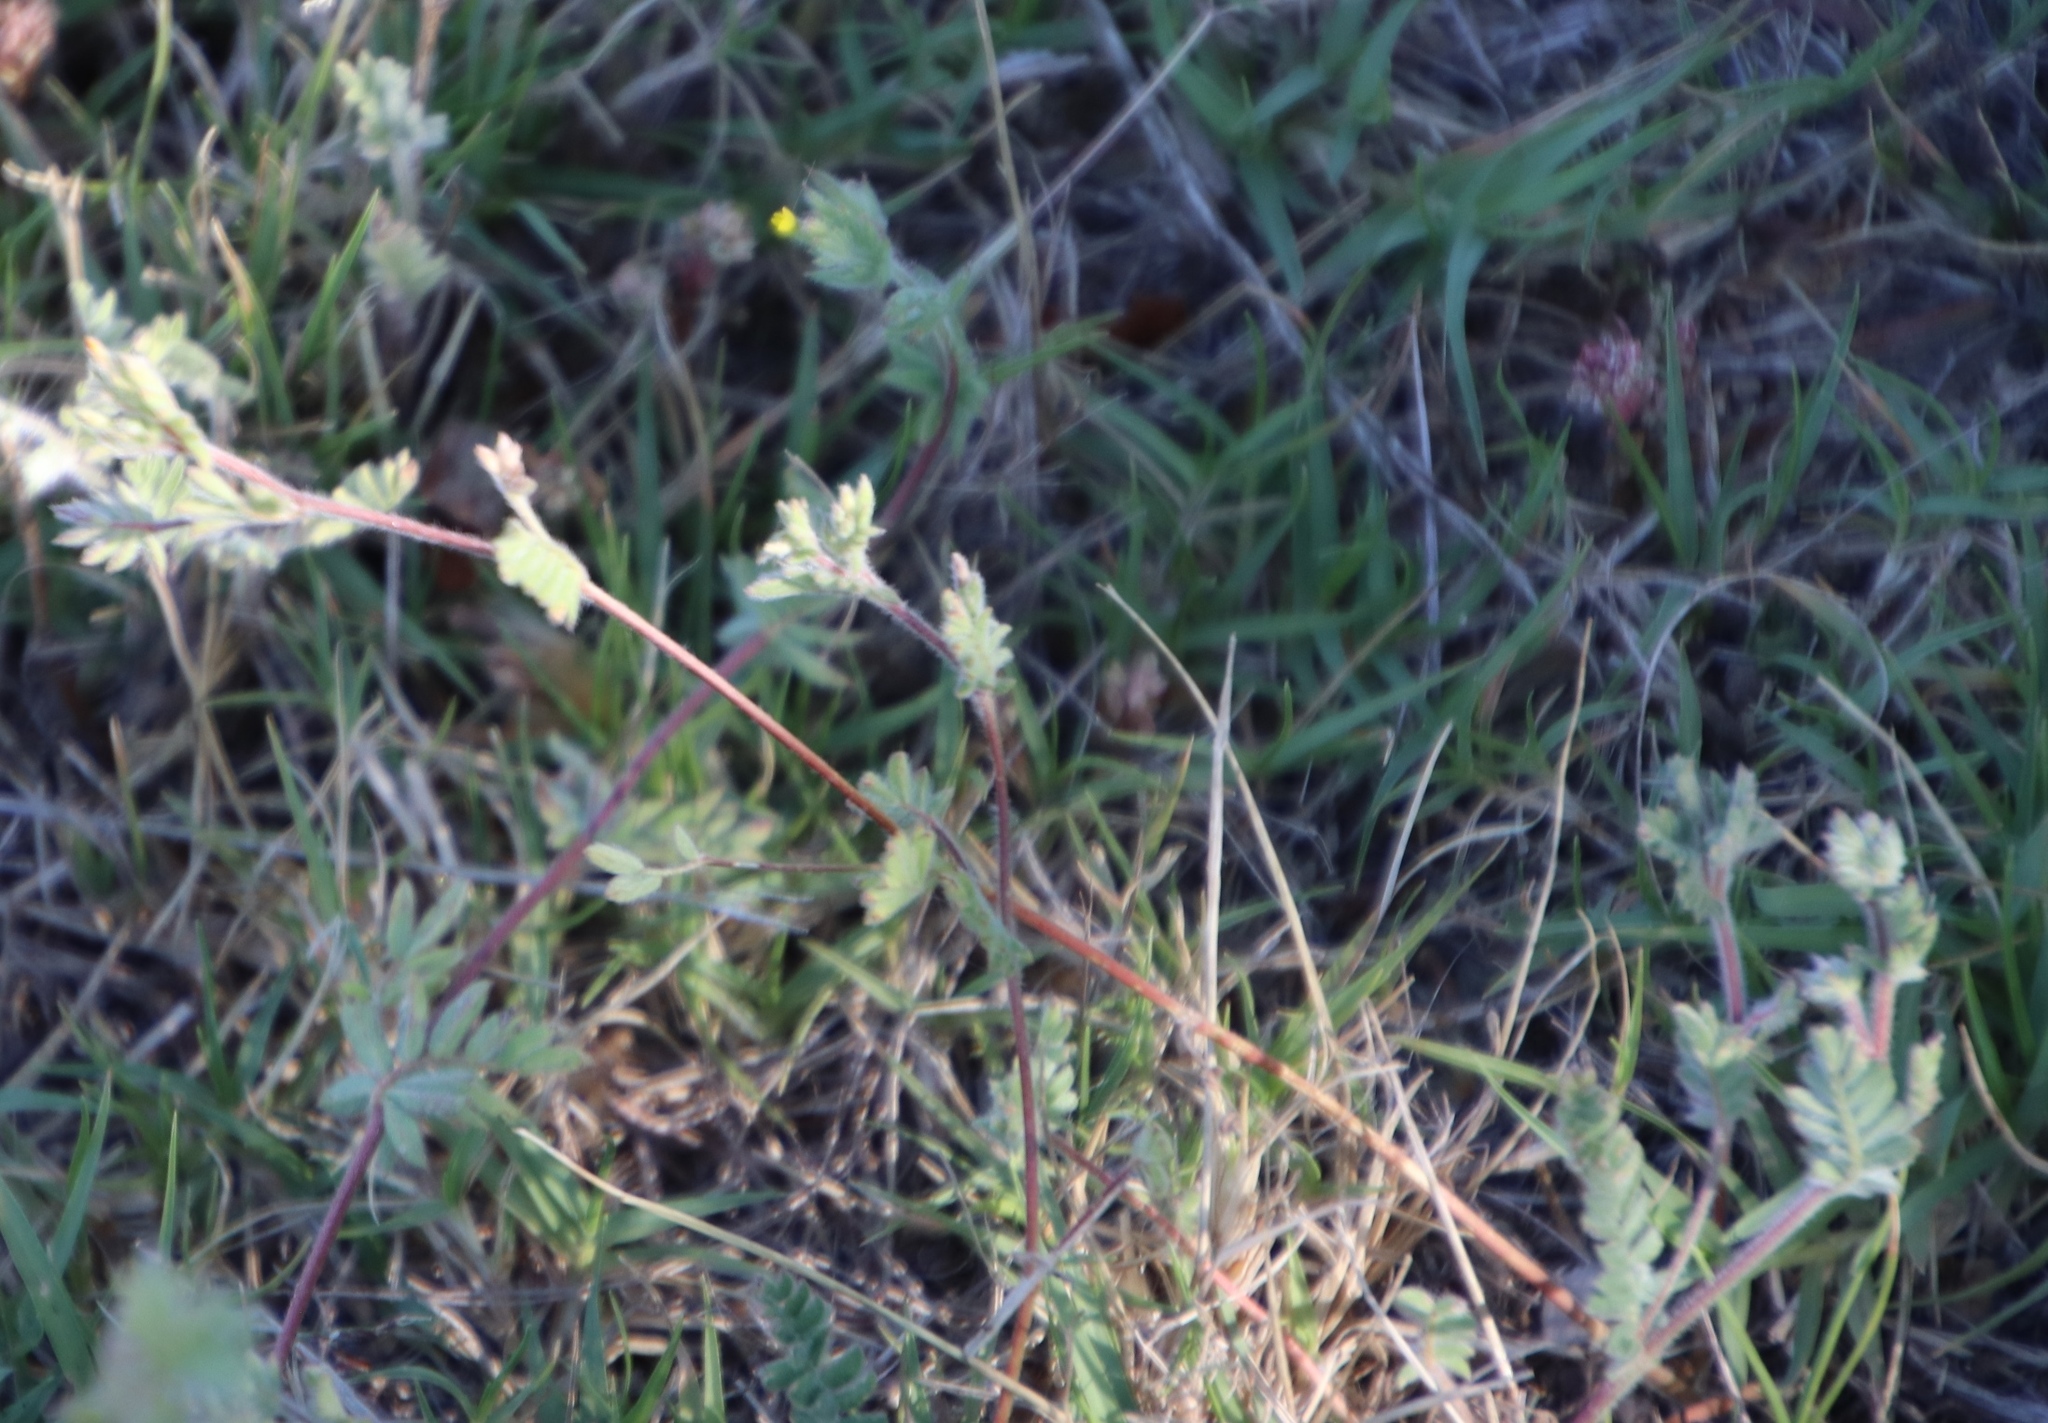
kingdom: Plantae
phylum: Tracheophyta
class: Magnoliopsida
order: Fabales
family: Fabaceae
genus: Ornithopus
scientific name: Ornithopus compressus
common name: Yellow serradella
